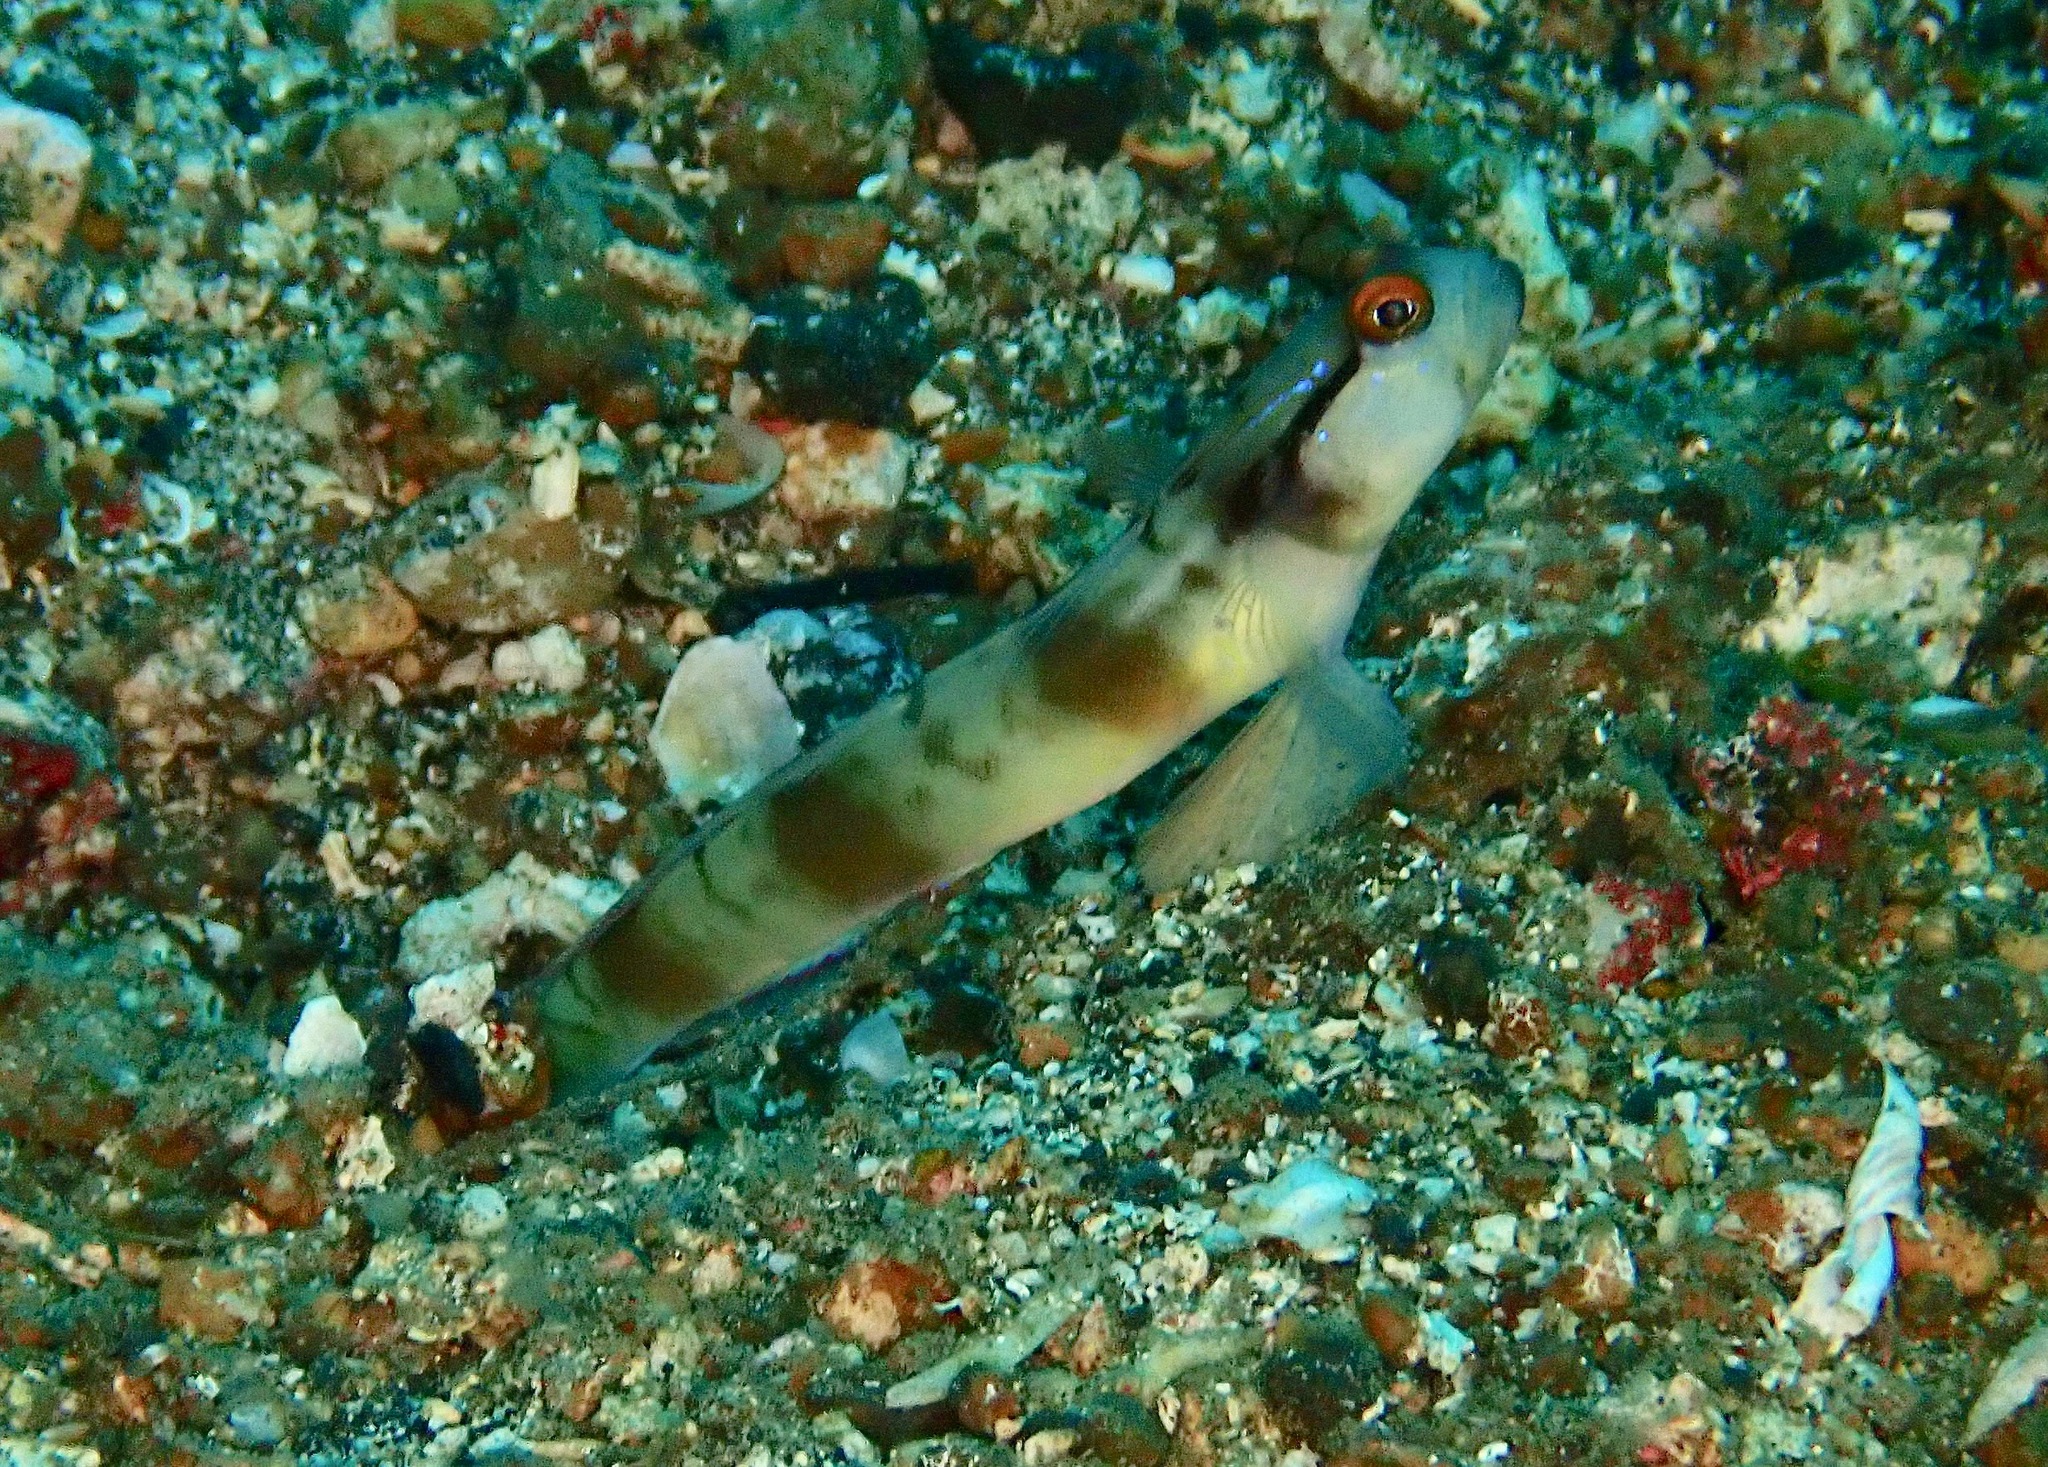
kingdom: Animalia
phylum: Chordata
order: Perciformes
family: Gobiidae
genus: Amblyeleotris
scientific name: Amblyeleotris gymnocephala
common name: Masked shrimpgoby
